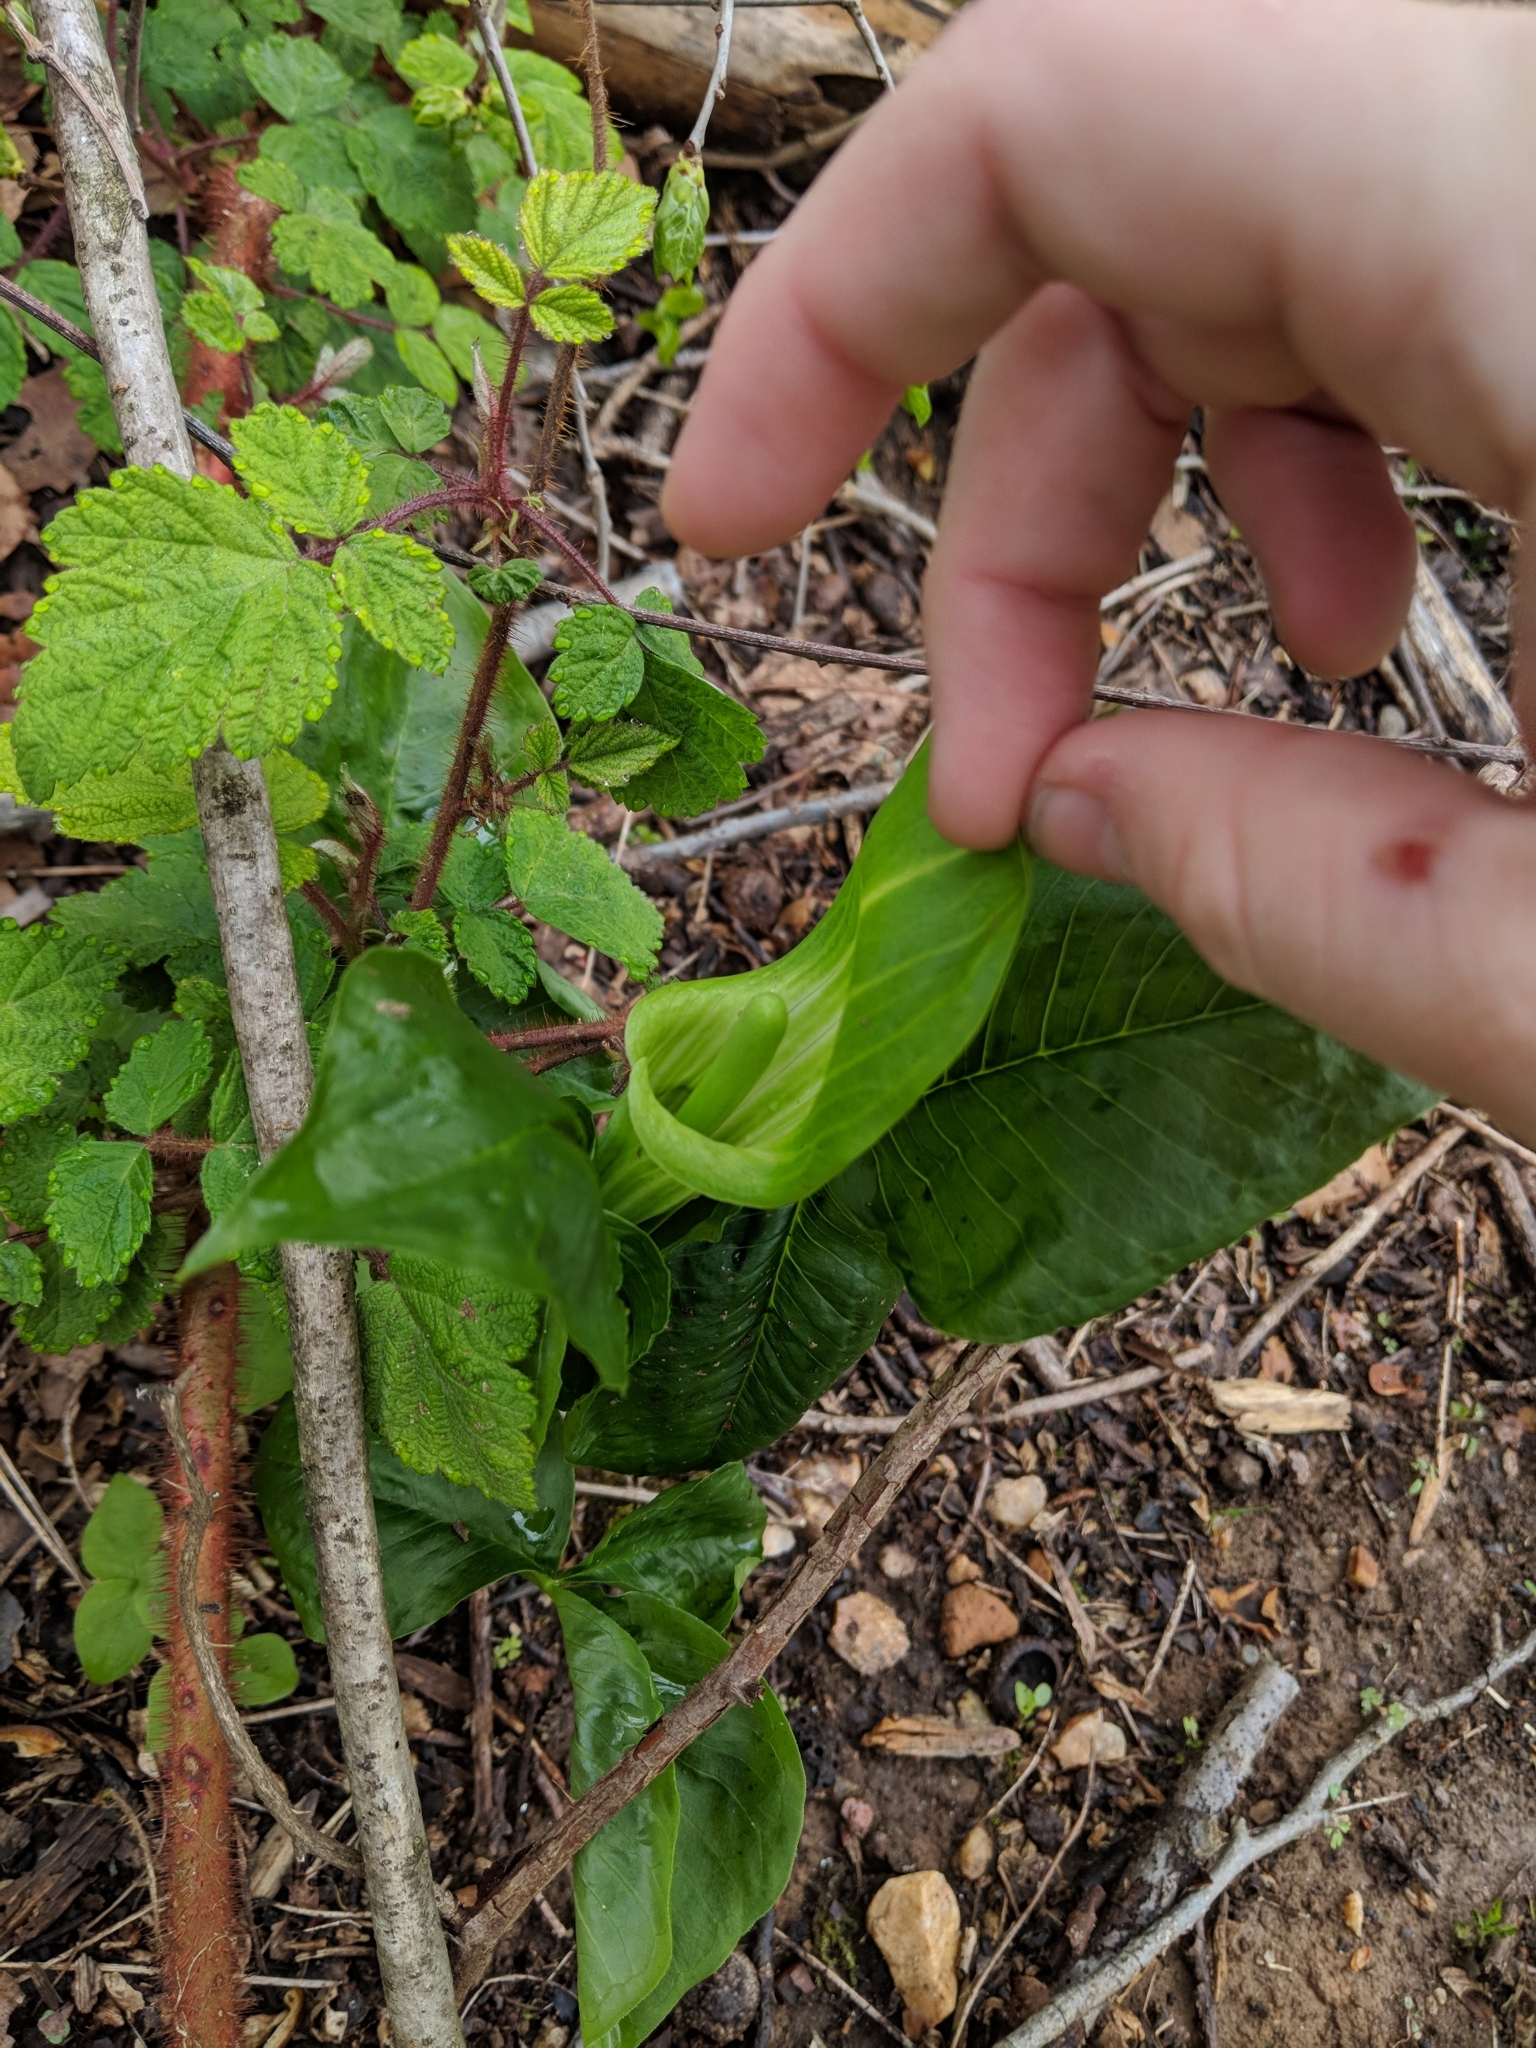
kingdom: Plantae
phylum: Tracheophyta
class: Liliopsida
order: Alismatales
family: Araceae
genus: Arisaema
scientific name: Arisaema triphyllum
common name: Jack-in-the-pulpit
